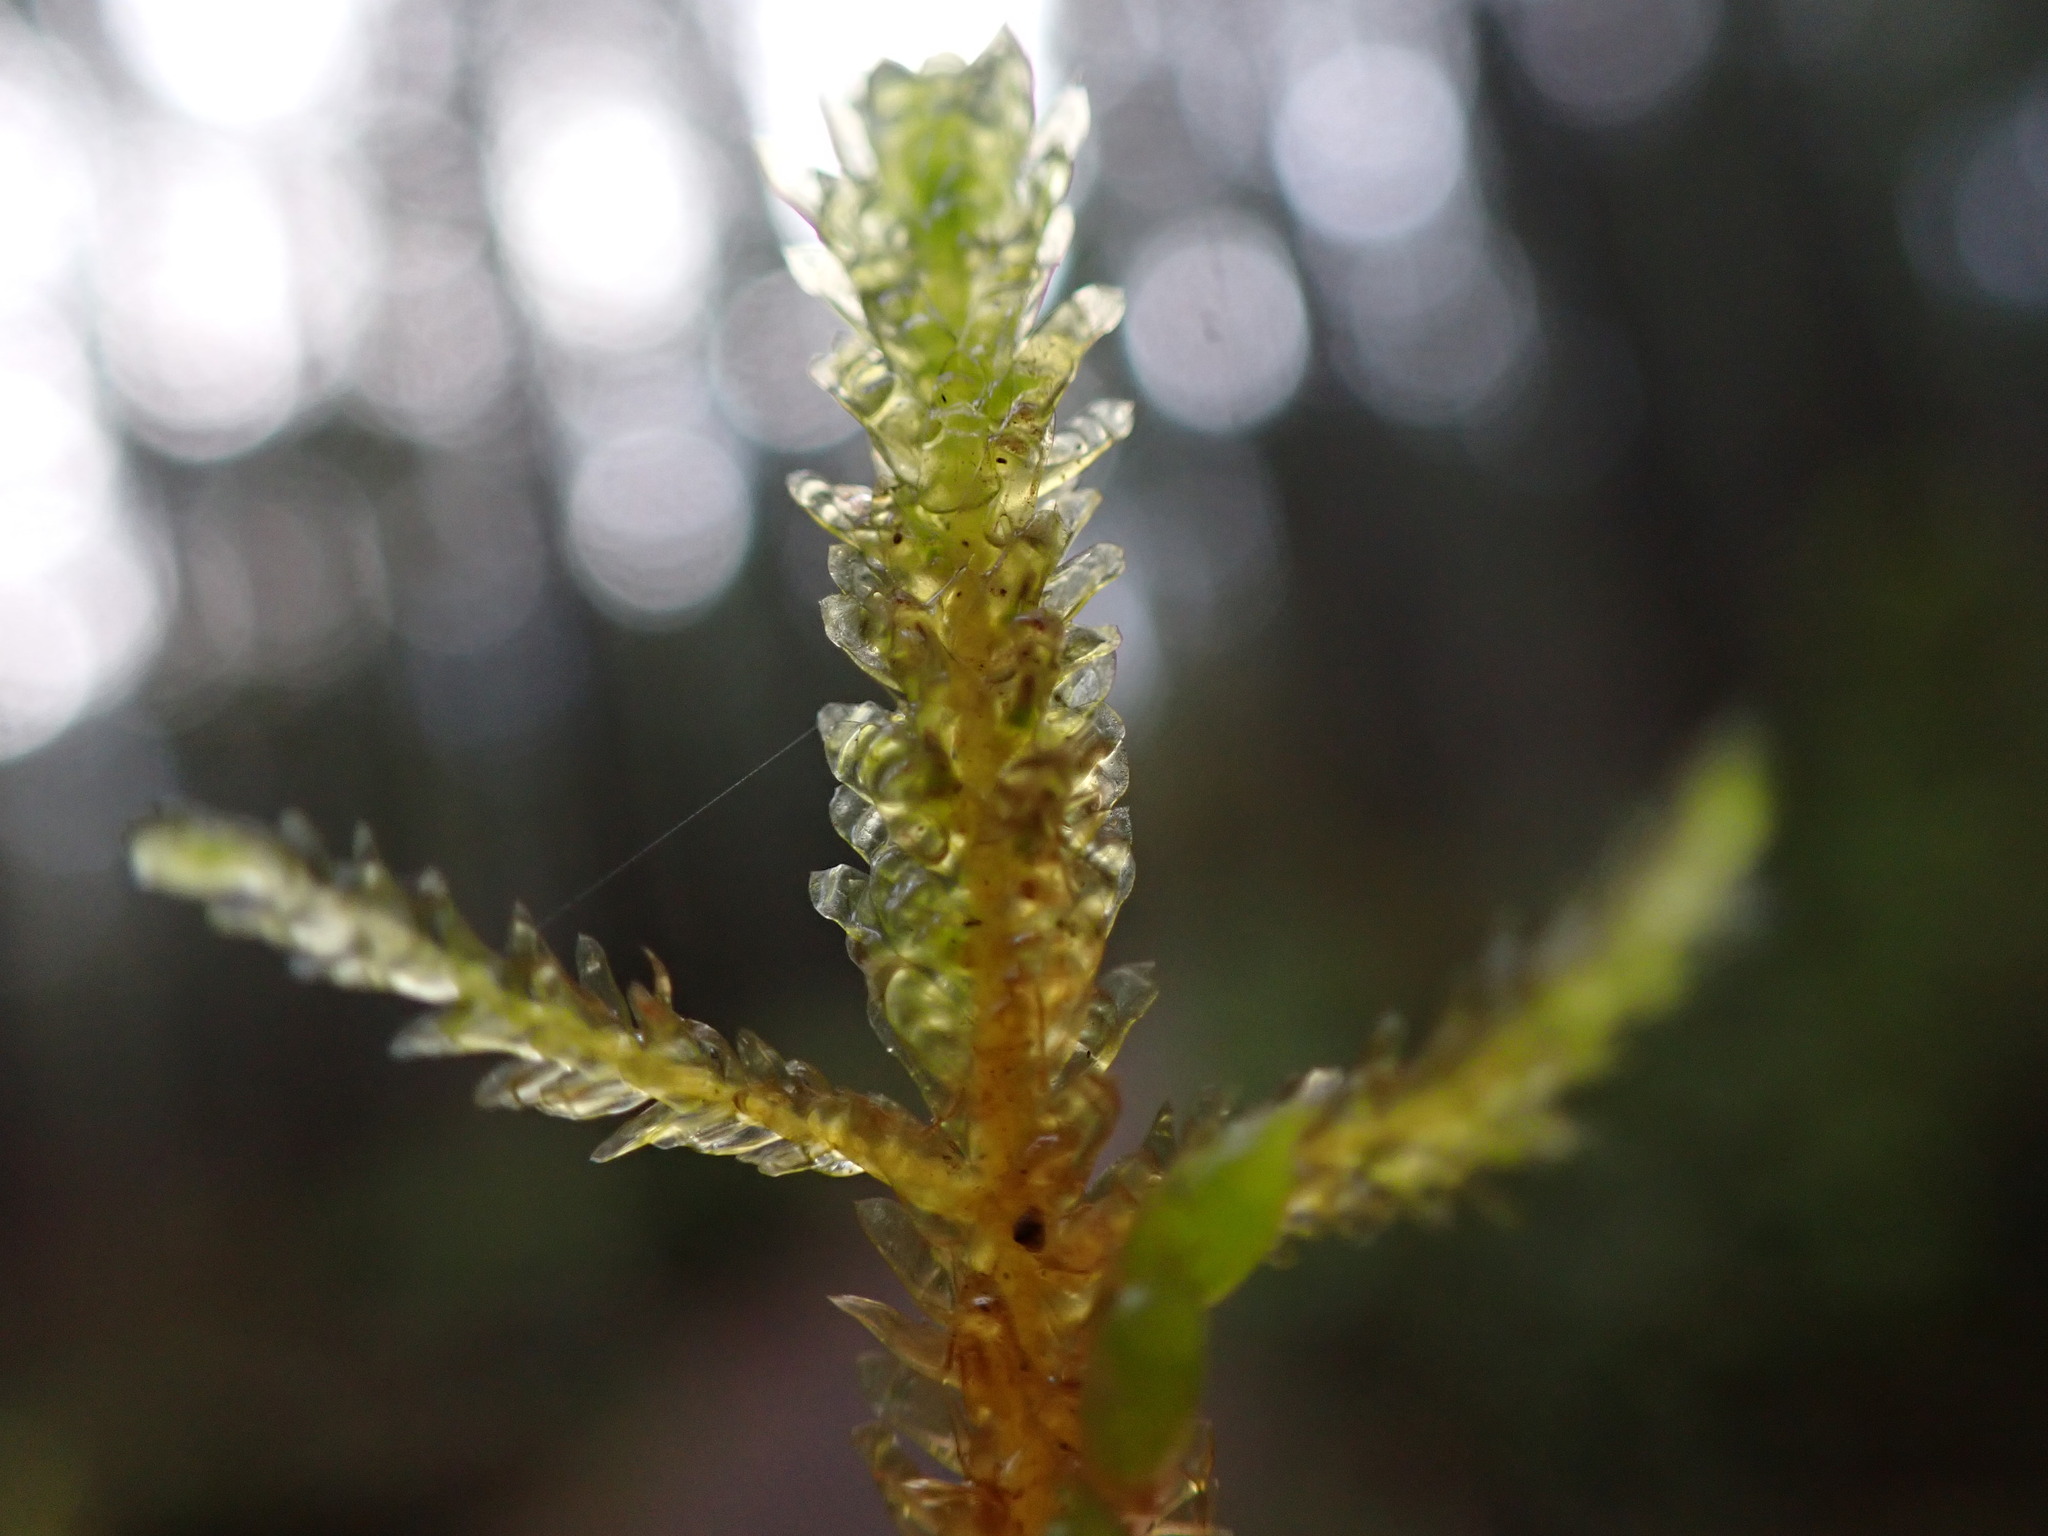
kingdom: Plantae
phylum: Bryophyta
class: Bryopsida
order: Hypnales
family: Neckeraceae
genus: Metaneckera
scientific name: Metaneckera menziesii
